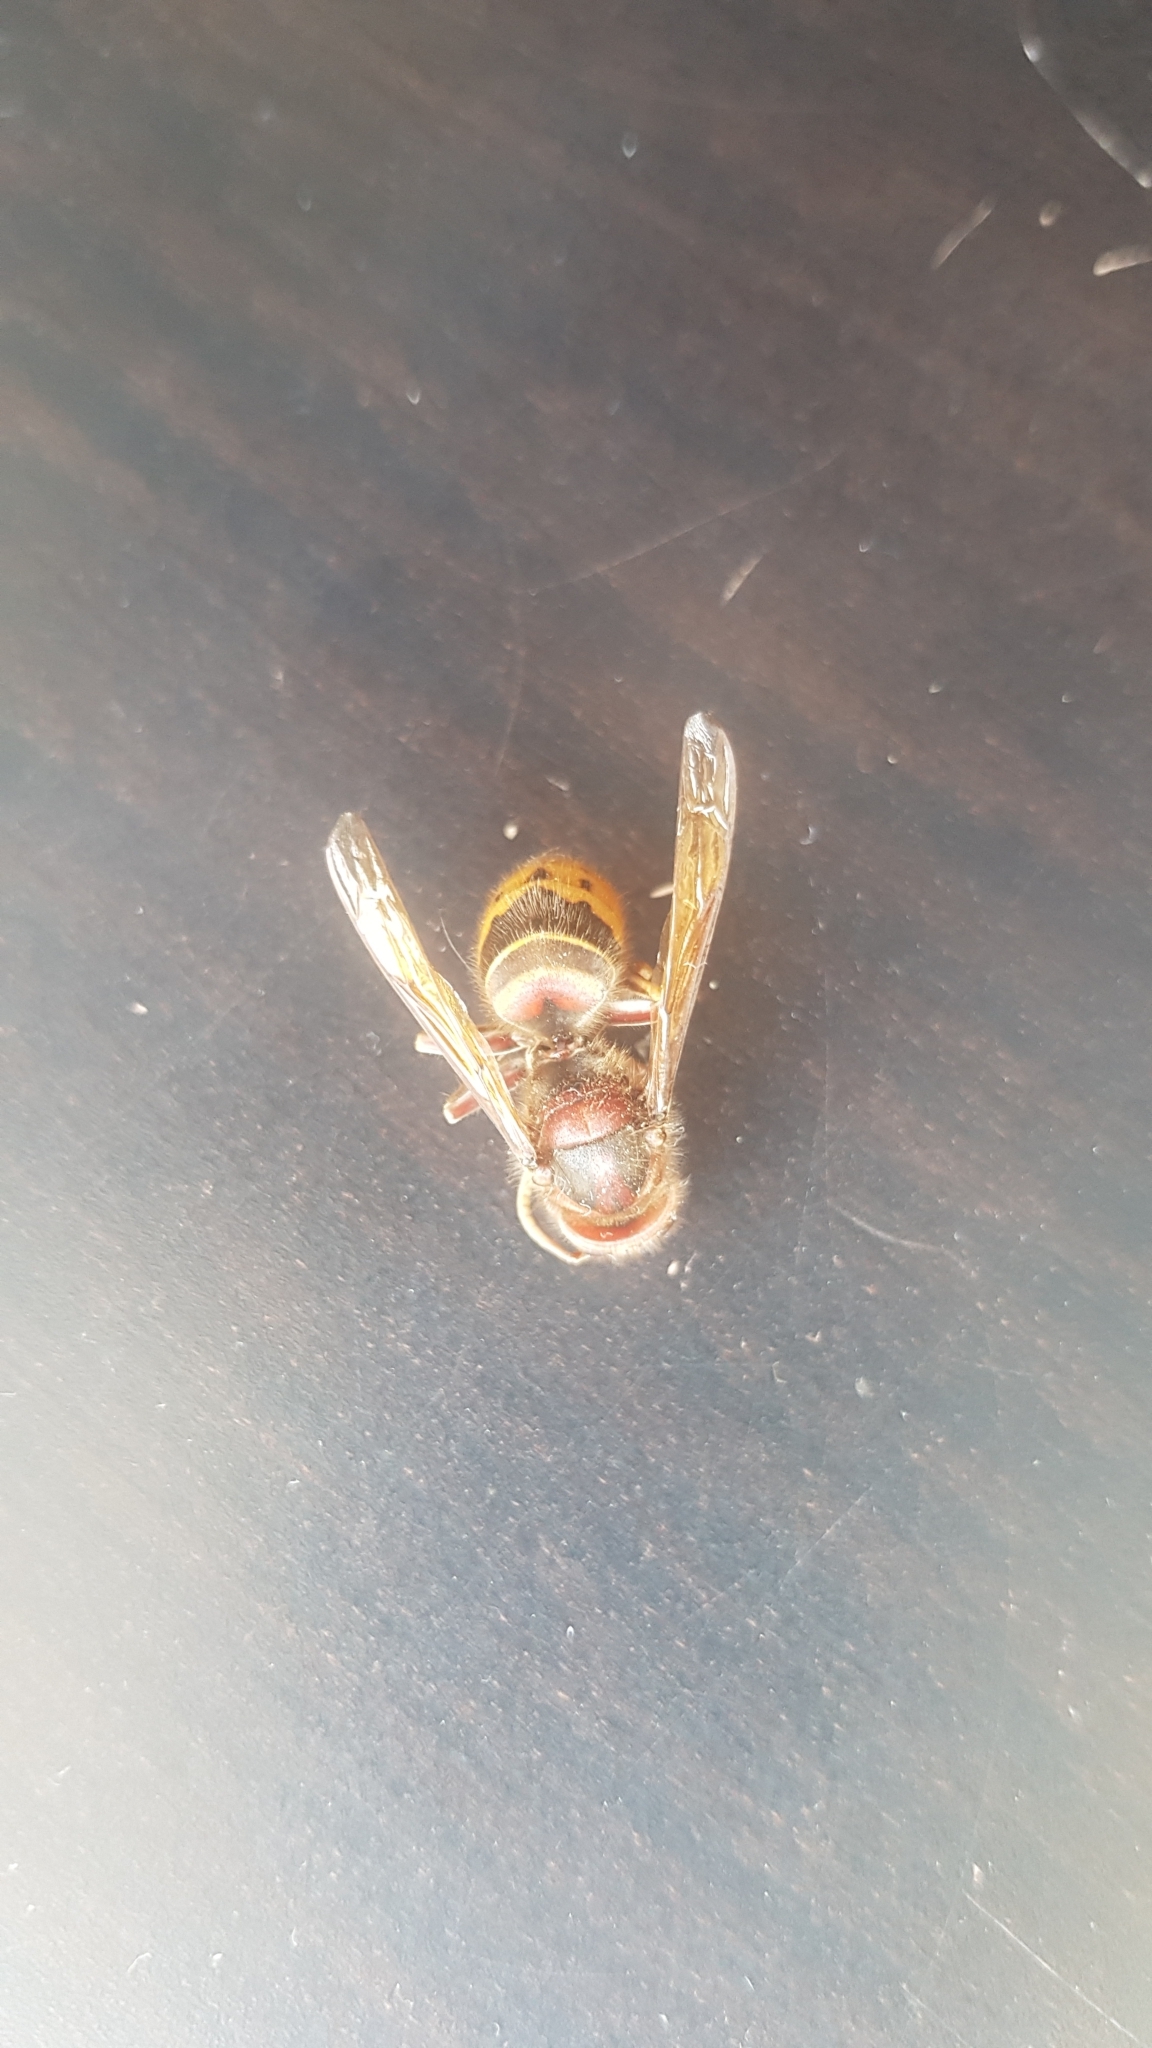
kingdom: Animalia
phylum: Arthropoda
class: Insecta
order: Hymenoptera
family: Vespidae
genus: Vespa
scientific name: Vespa crabro
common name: Hornet
